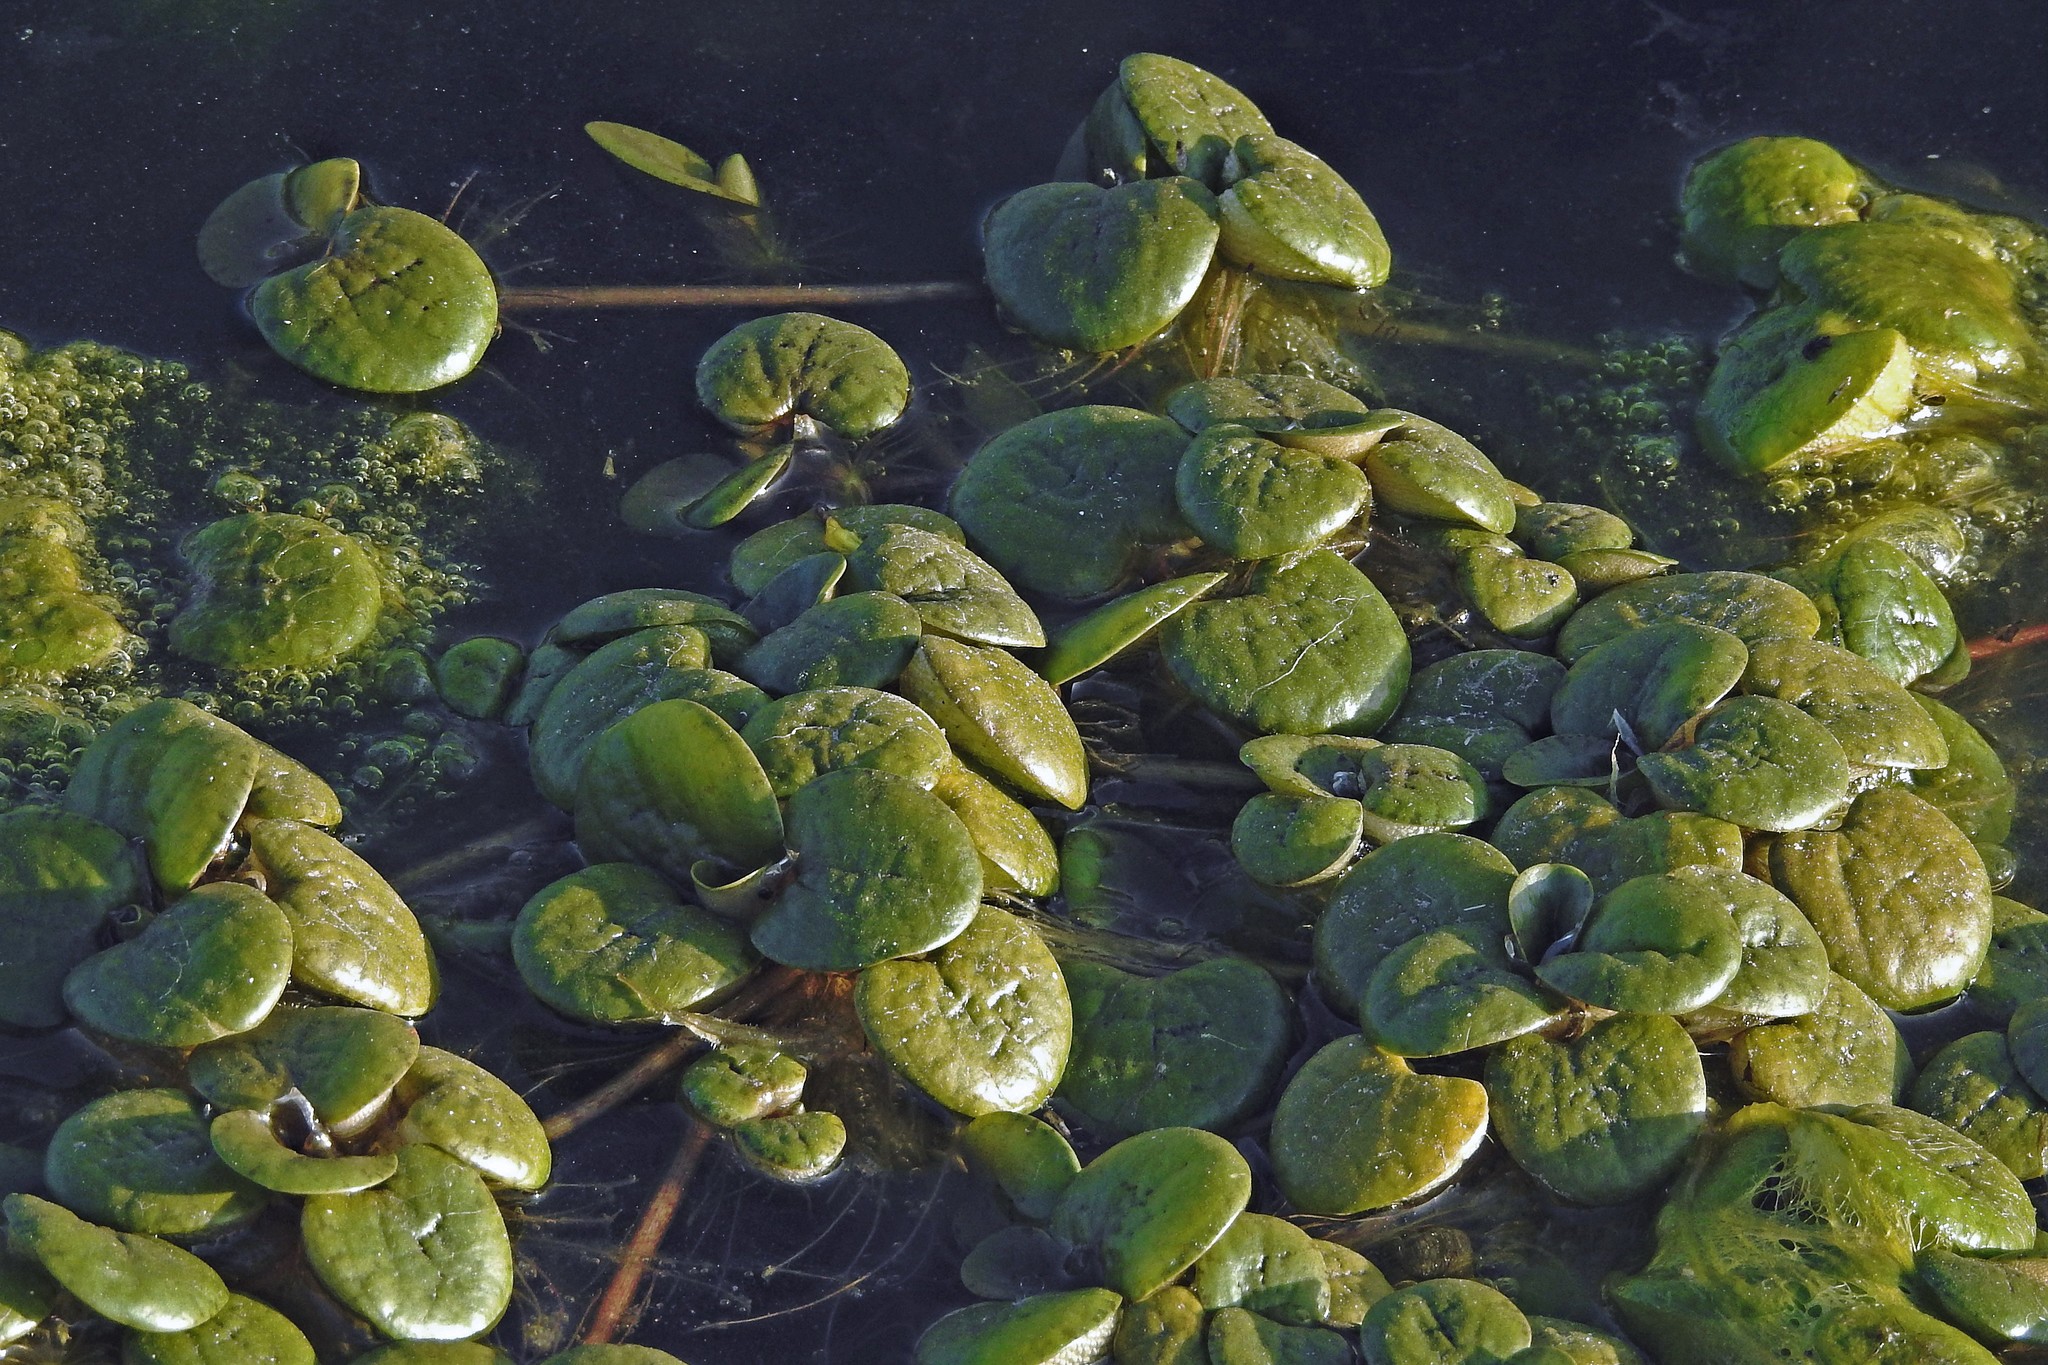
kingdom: Plantae
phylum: Tracheophyta
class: Liliopsida
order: Alismatales
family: Hydrocharitaceae
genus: Hydrocharis
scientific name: Hydrocharis laevigata
